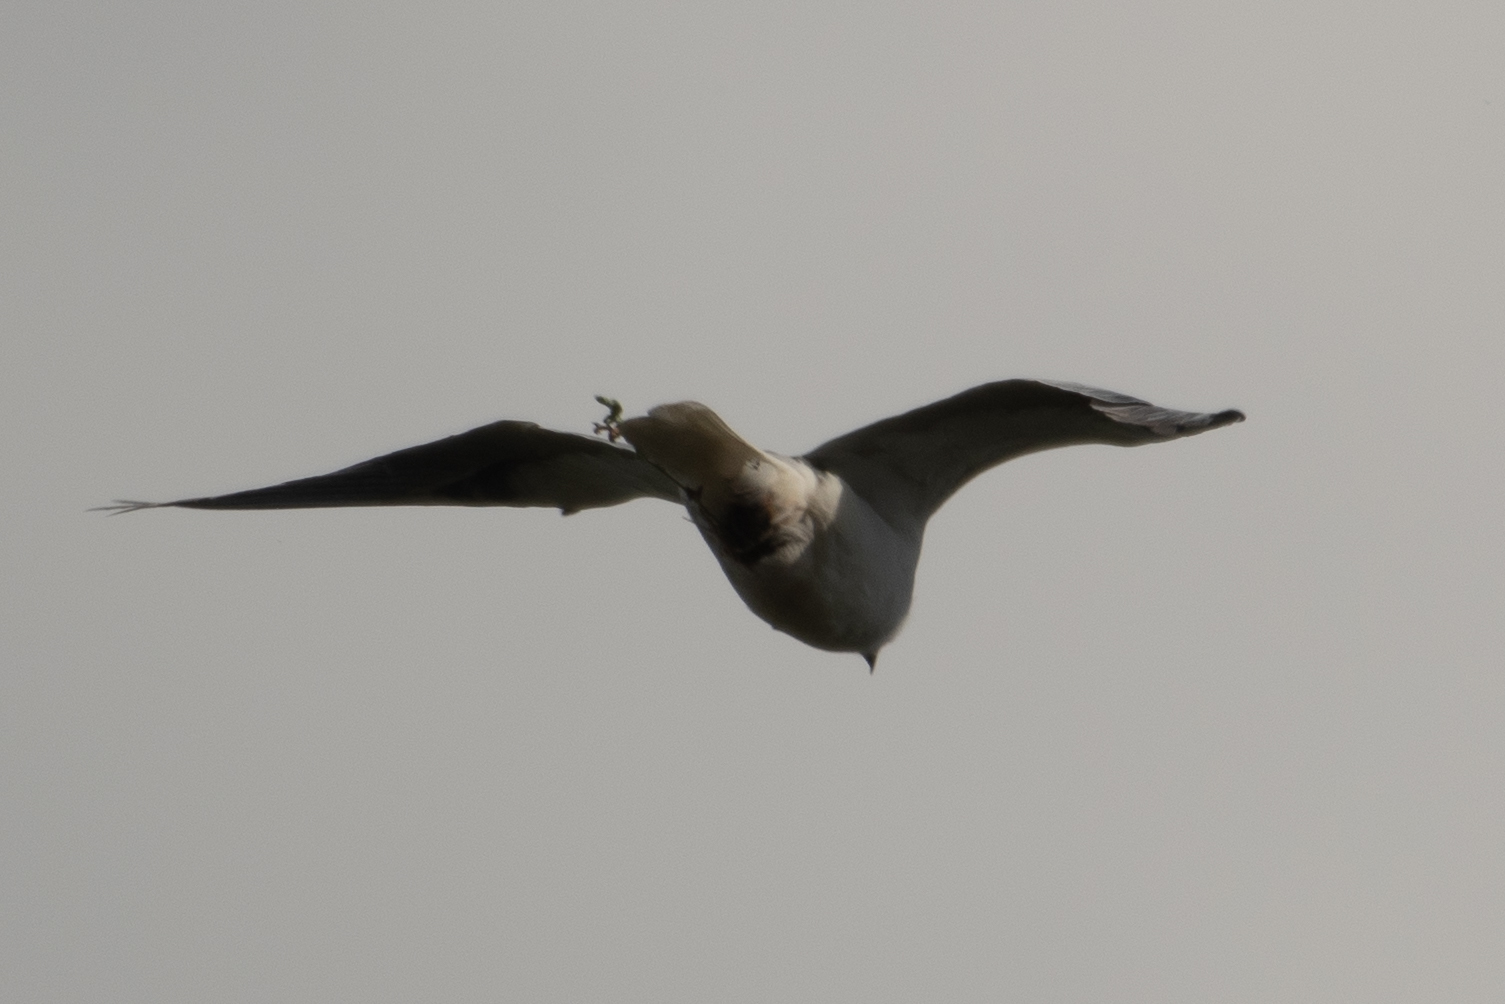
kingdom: Animalia
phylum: Chordata
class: Aves
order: Accipitriformes
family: Accipitridae
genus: Elanus
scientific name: Elanus leucurus
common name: White-tailed kite
